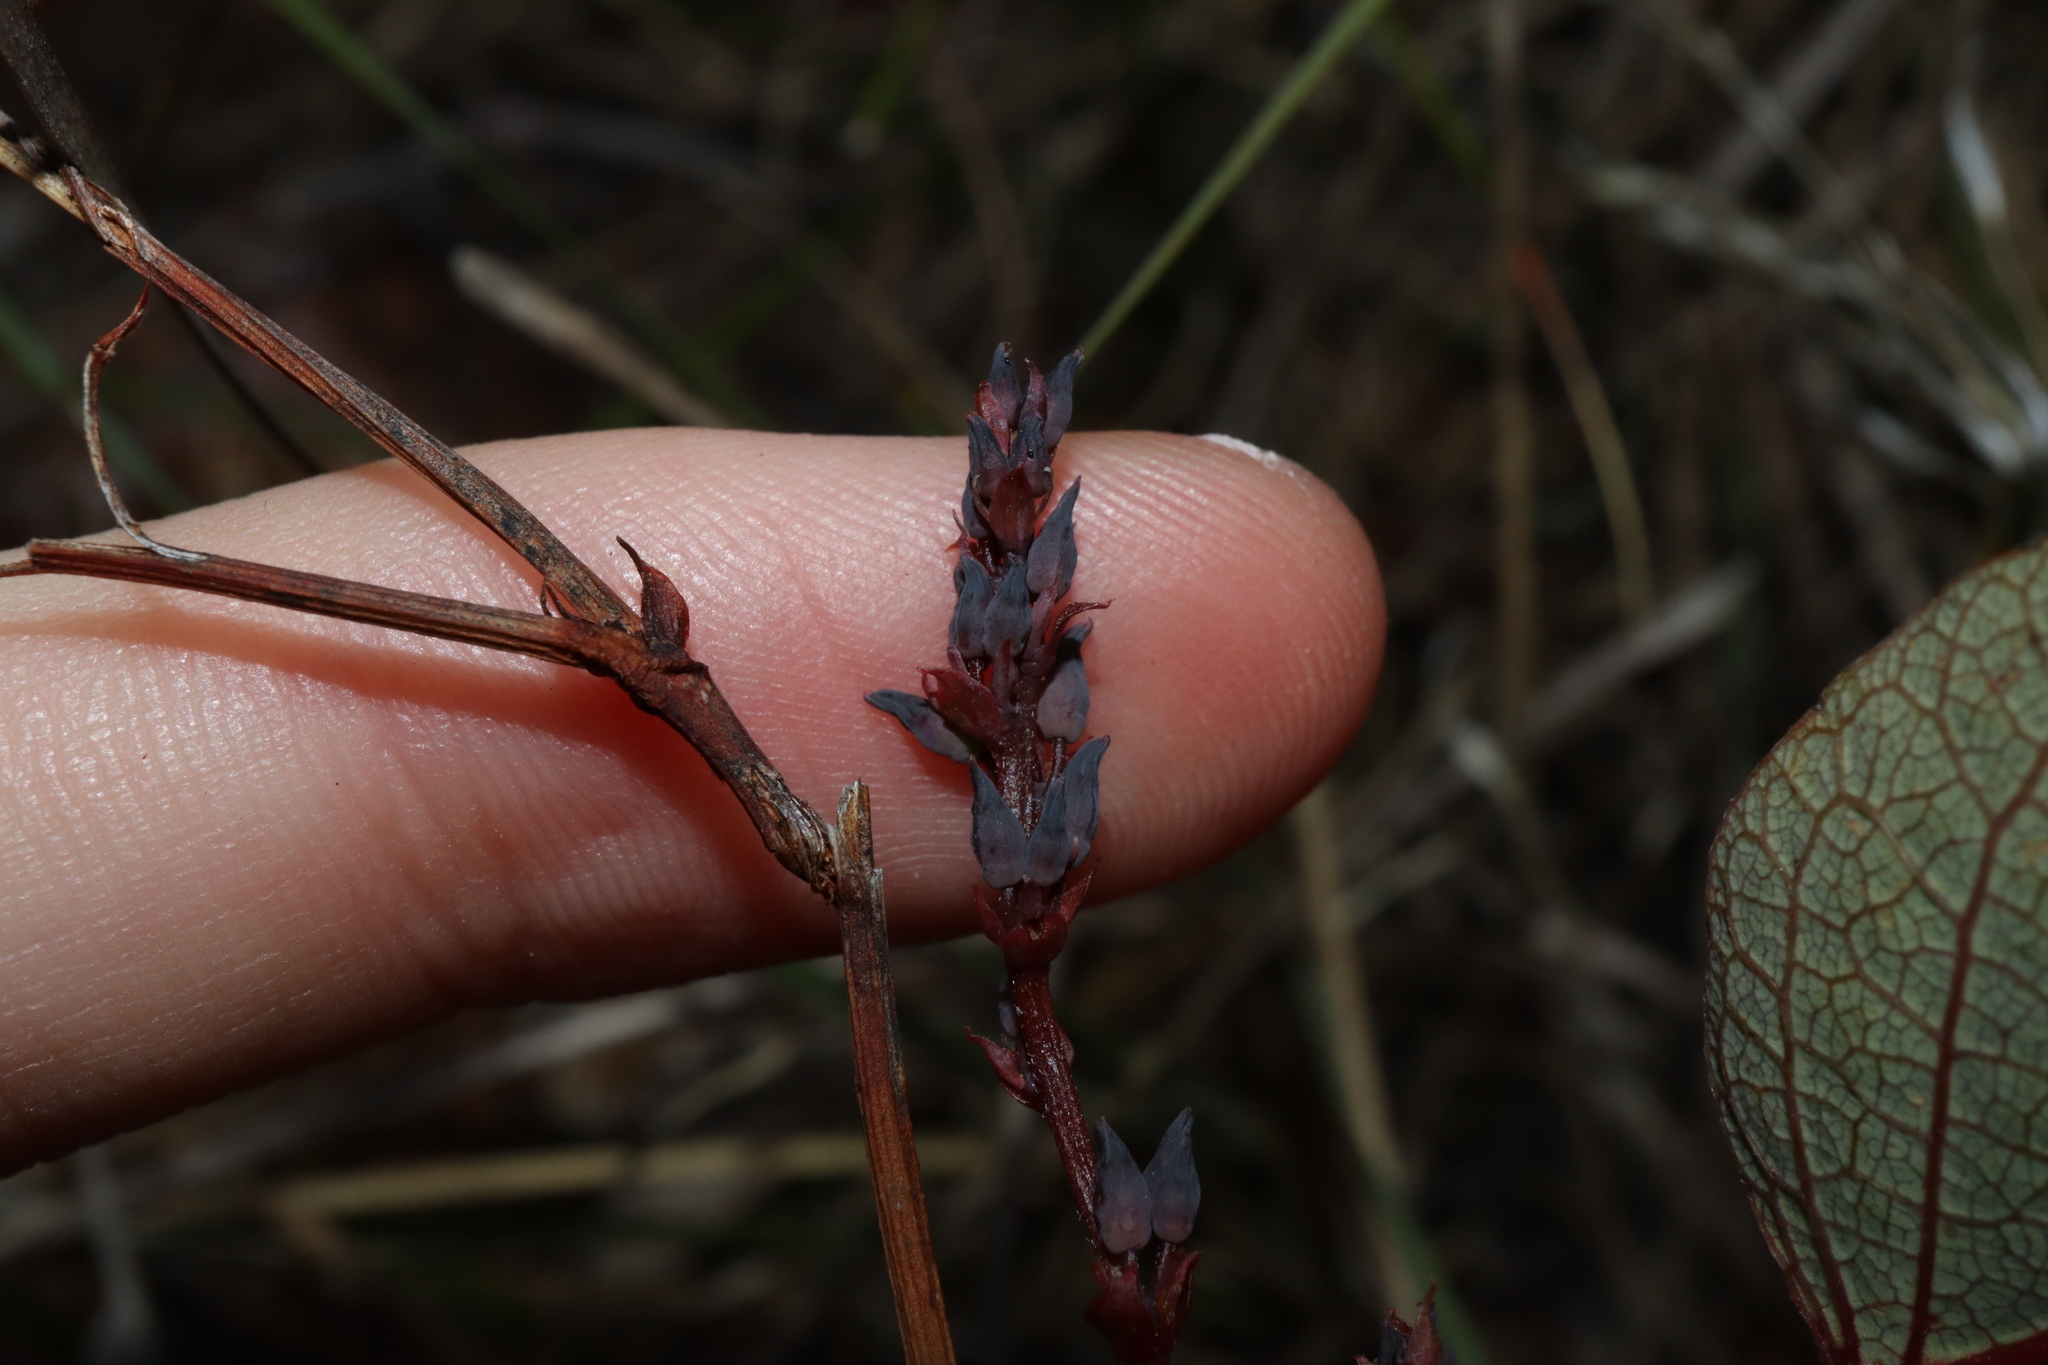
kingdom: Plantae
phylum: Tracheophyta
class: Magnoliopsida
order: Fabales
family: Fabaceae
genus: Hardenbergia
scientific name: Hardenbergia violacea
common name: Coral-pea
